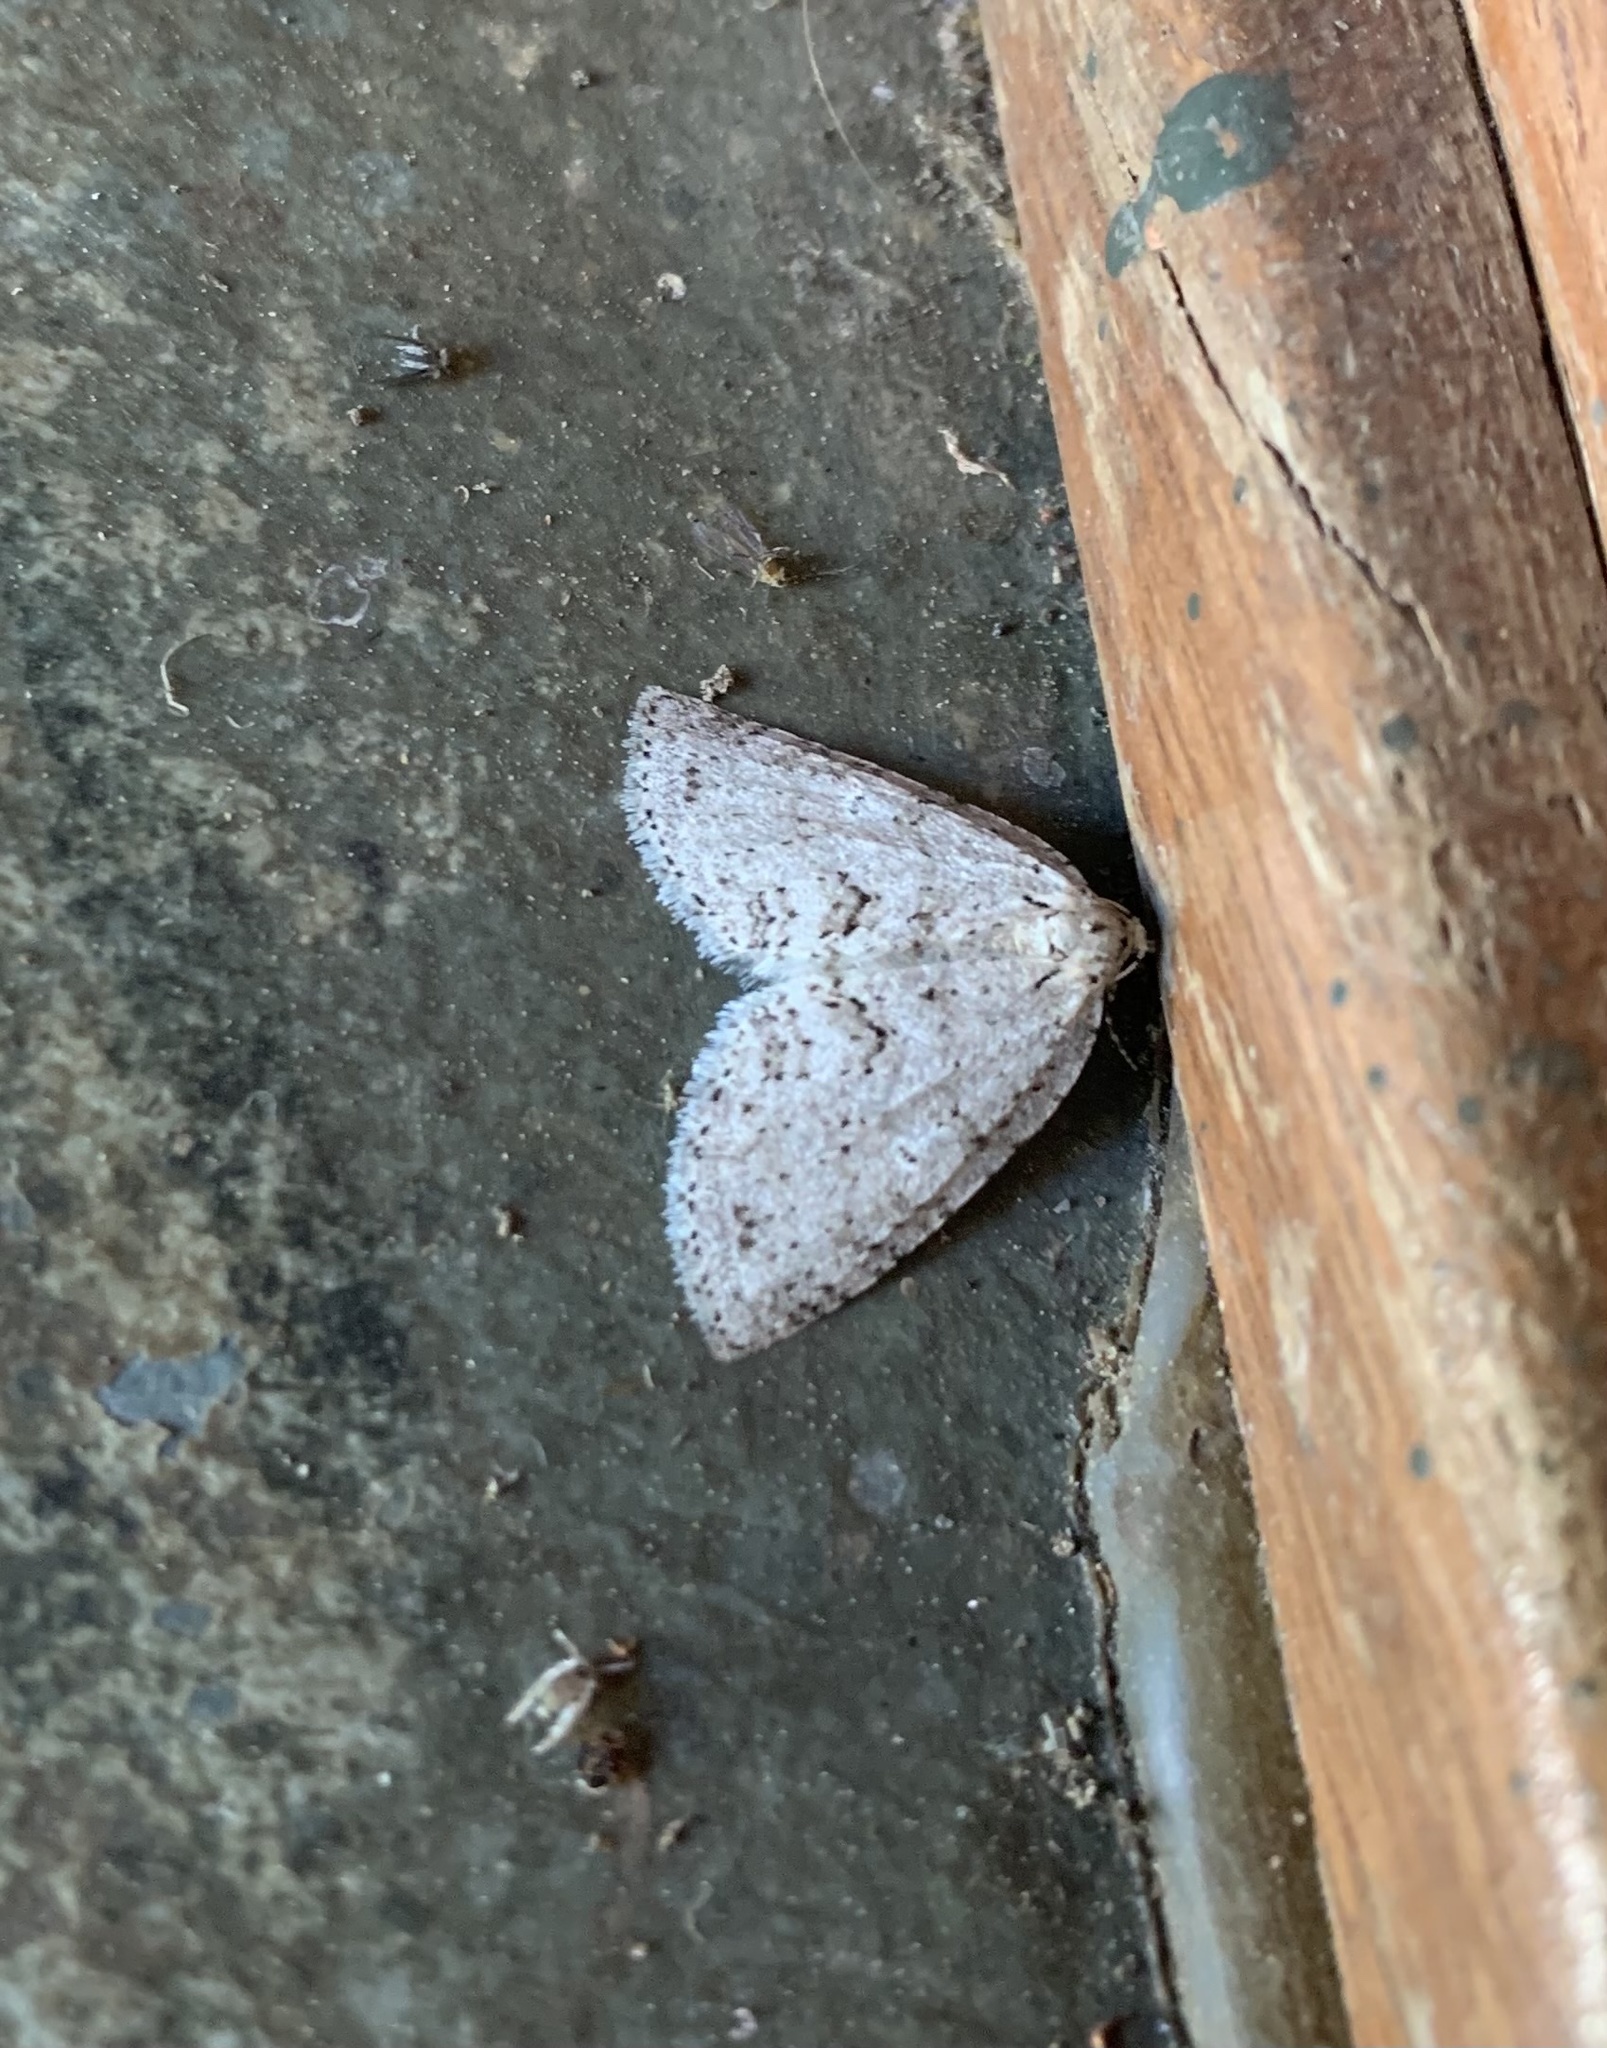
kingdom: Animalia
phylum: Arthropoda
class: Insecta
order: Lepidoptera
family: Geometridae
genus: Hoplosauris
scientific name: Hoplosauris
